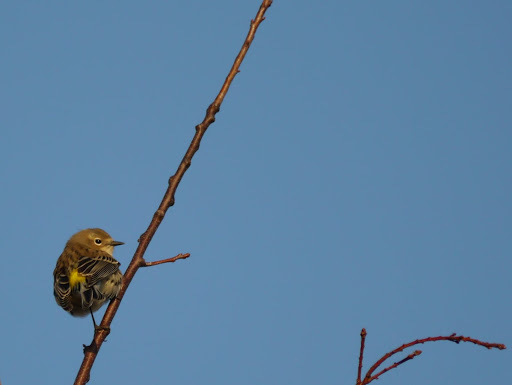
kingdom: Animalia
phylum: Chordata
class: Aves
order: Passeriformes
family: Parulidae
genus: Setophaga
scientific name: Setophaga coronata
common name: Myrtle warbler
